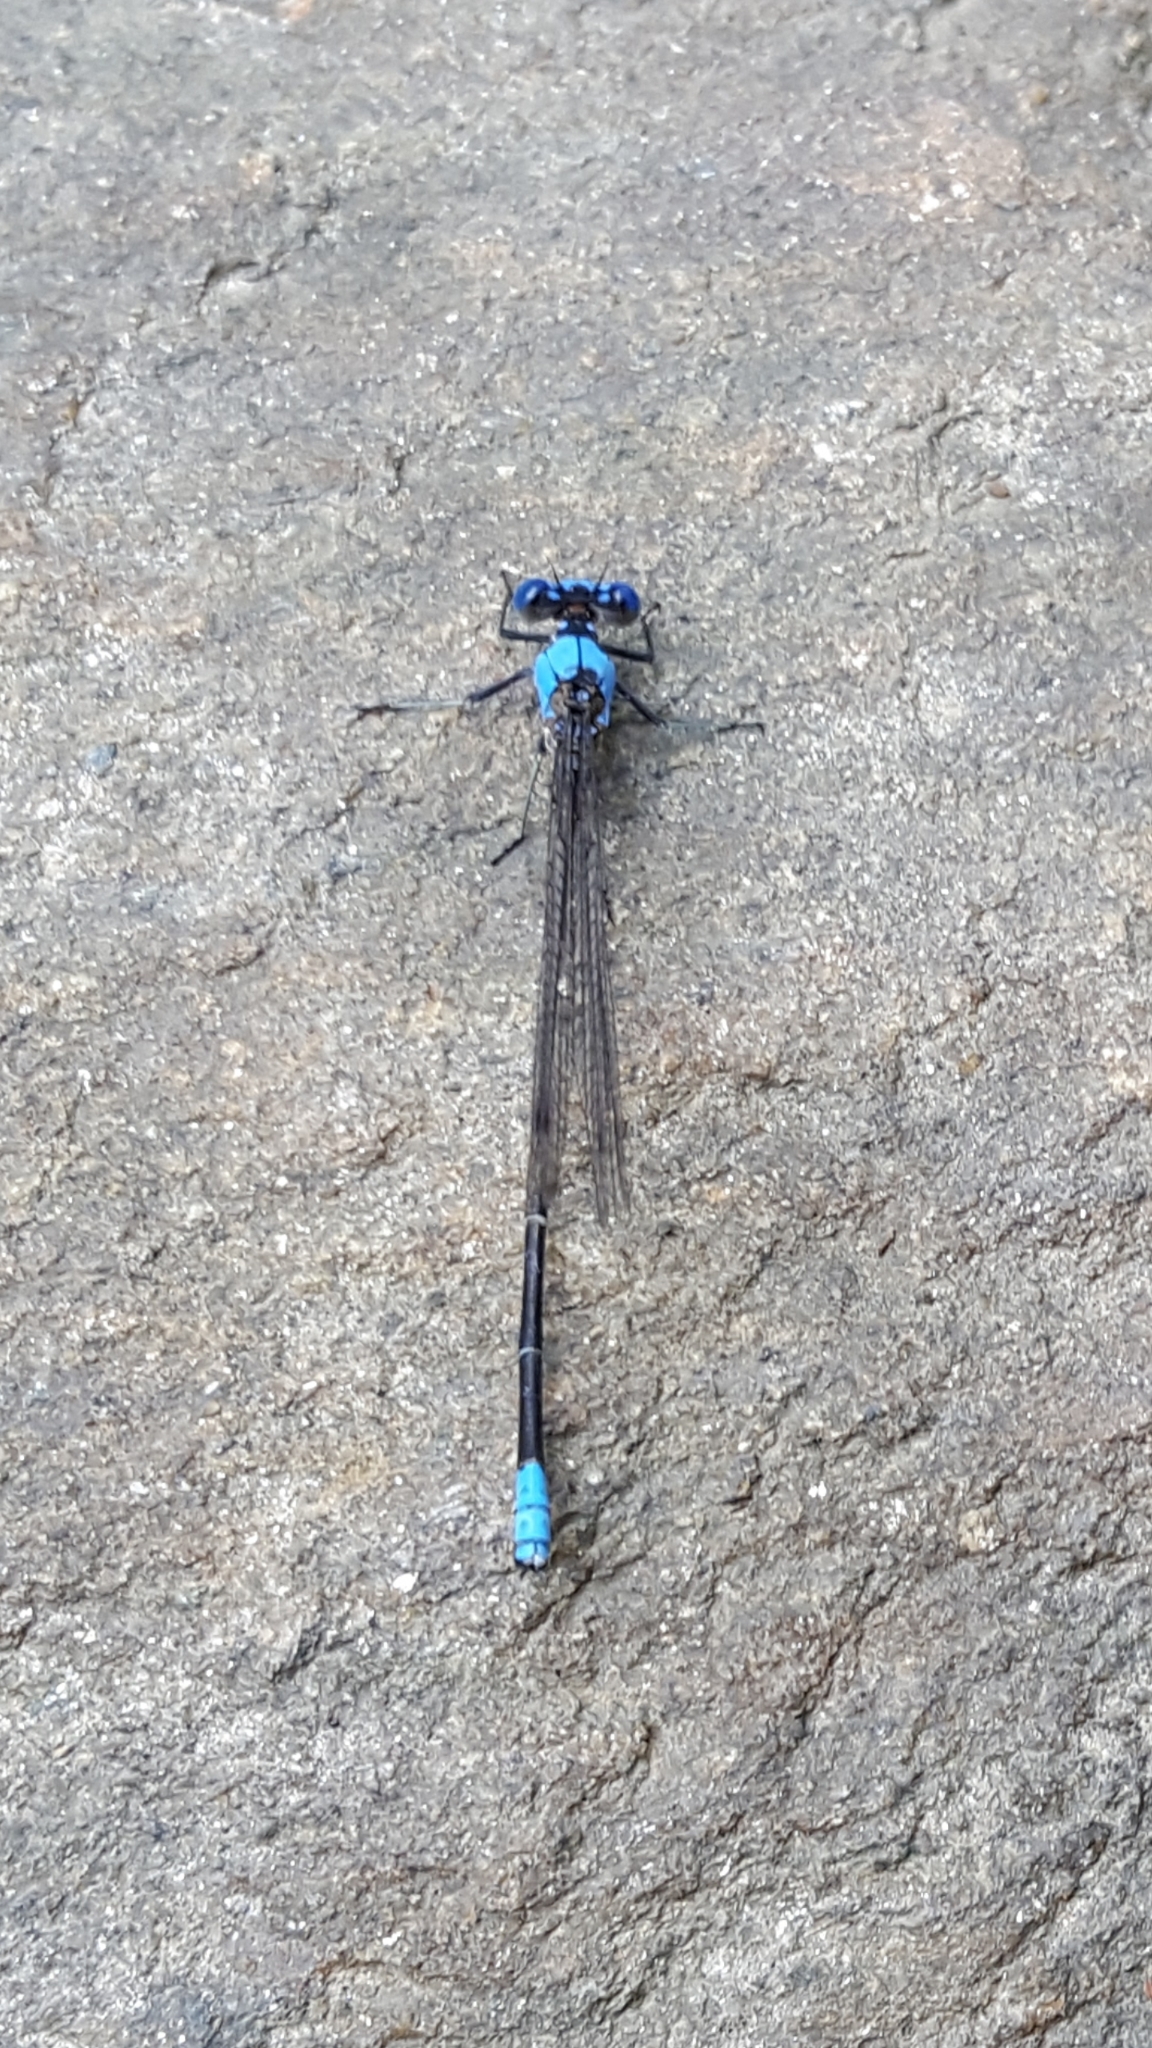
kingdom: Animalia
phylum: Arthropoda
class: Insecta
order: Odonata
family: Coenagrionidae
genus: Argia
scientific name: Argia apicalis
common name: Blue-fronted dancer
